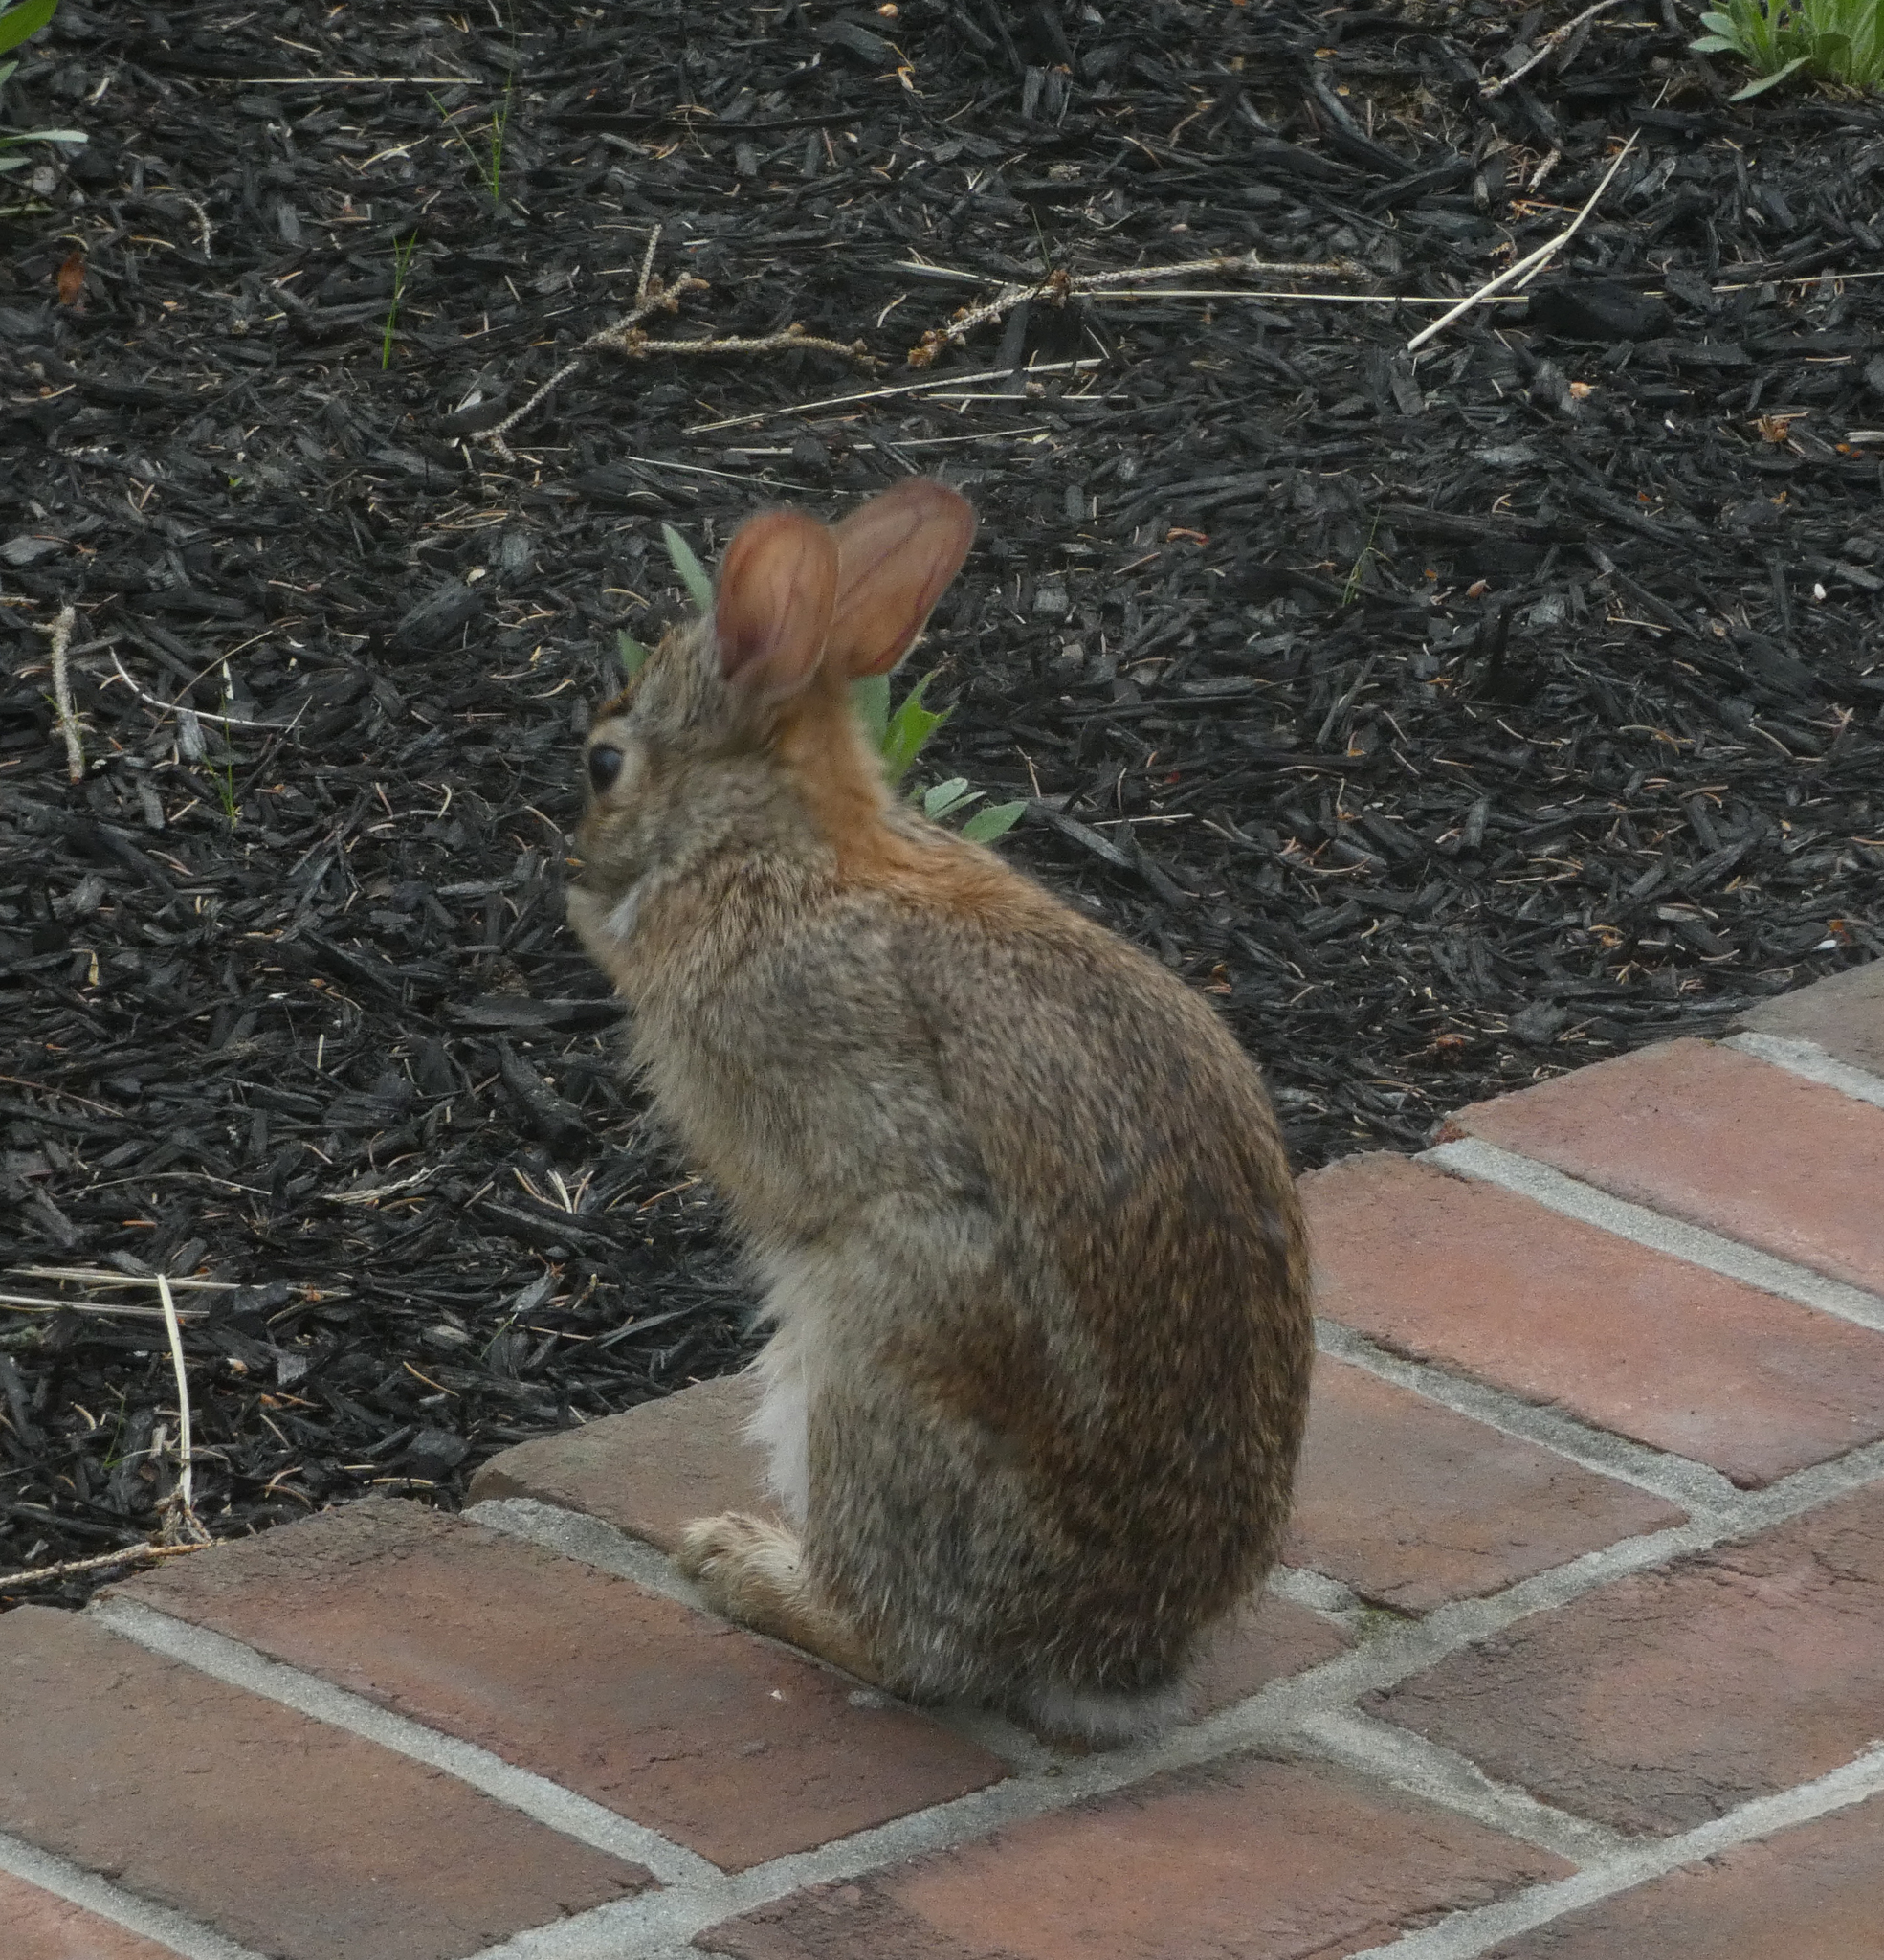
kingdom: Animalia
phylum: Chordata
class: Mammalia
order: Lagomorpha
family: Leporidae
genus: Sylvilagus
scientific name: Sylvilagus floridanus
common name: Eastern cottontail
